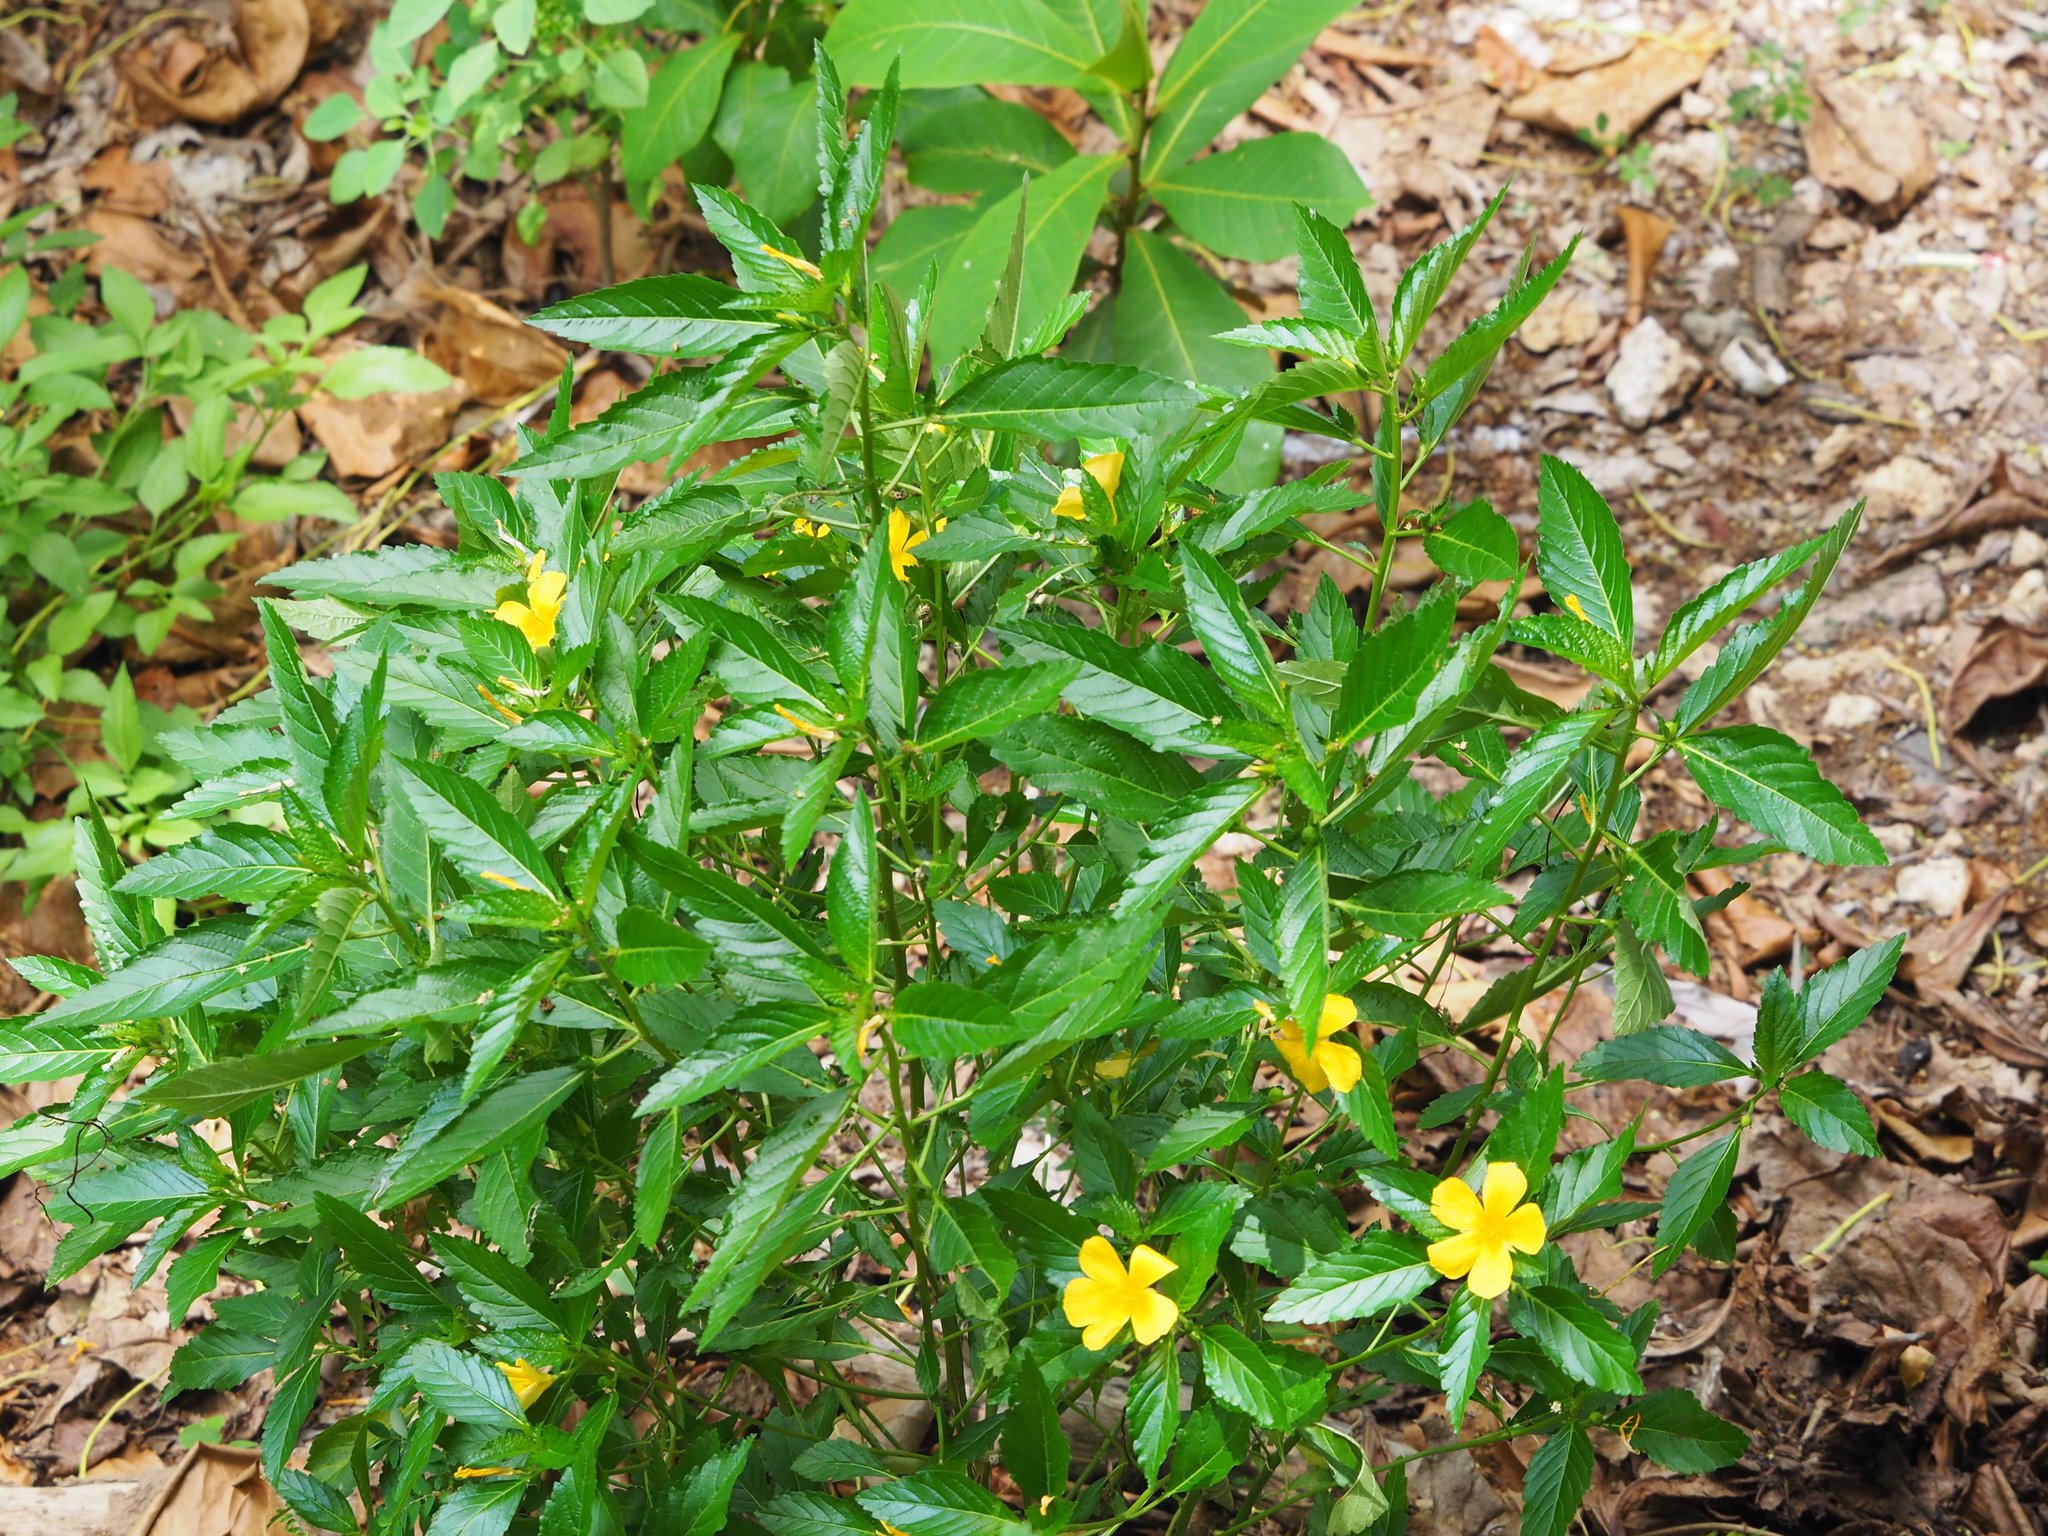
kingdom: Plantae
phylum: Tracheophyta
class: Magnoliopsida
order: Malpighiales
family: Turneraceae
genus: Turnera
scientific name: Turnera ulmifolia
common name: Ramgoat dashalong
